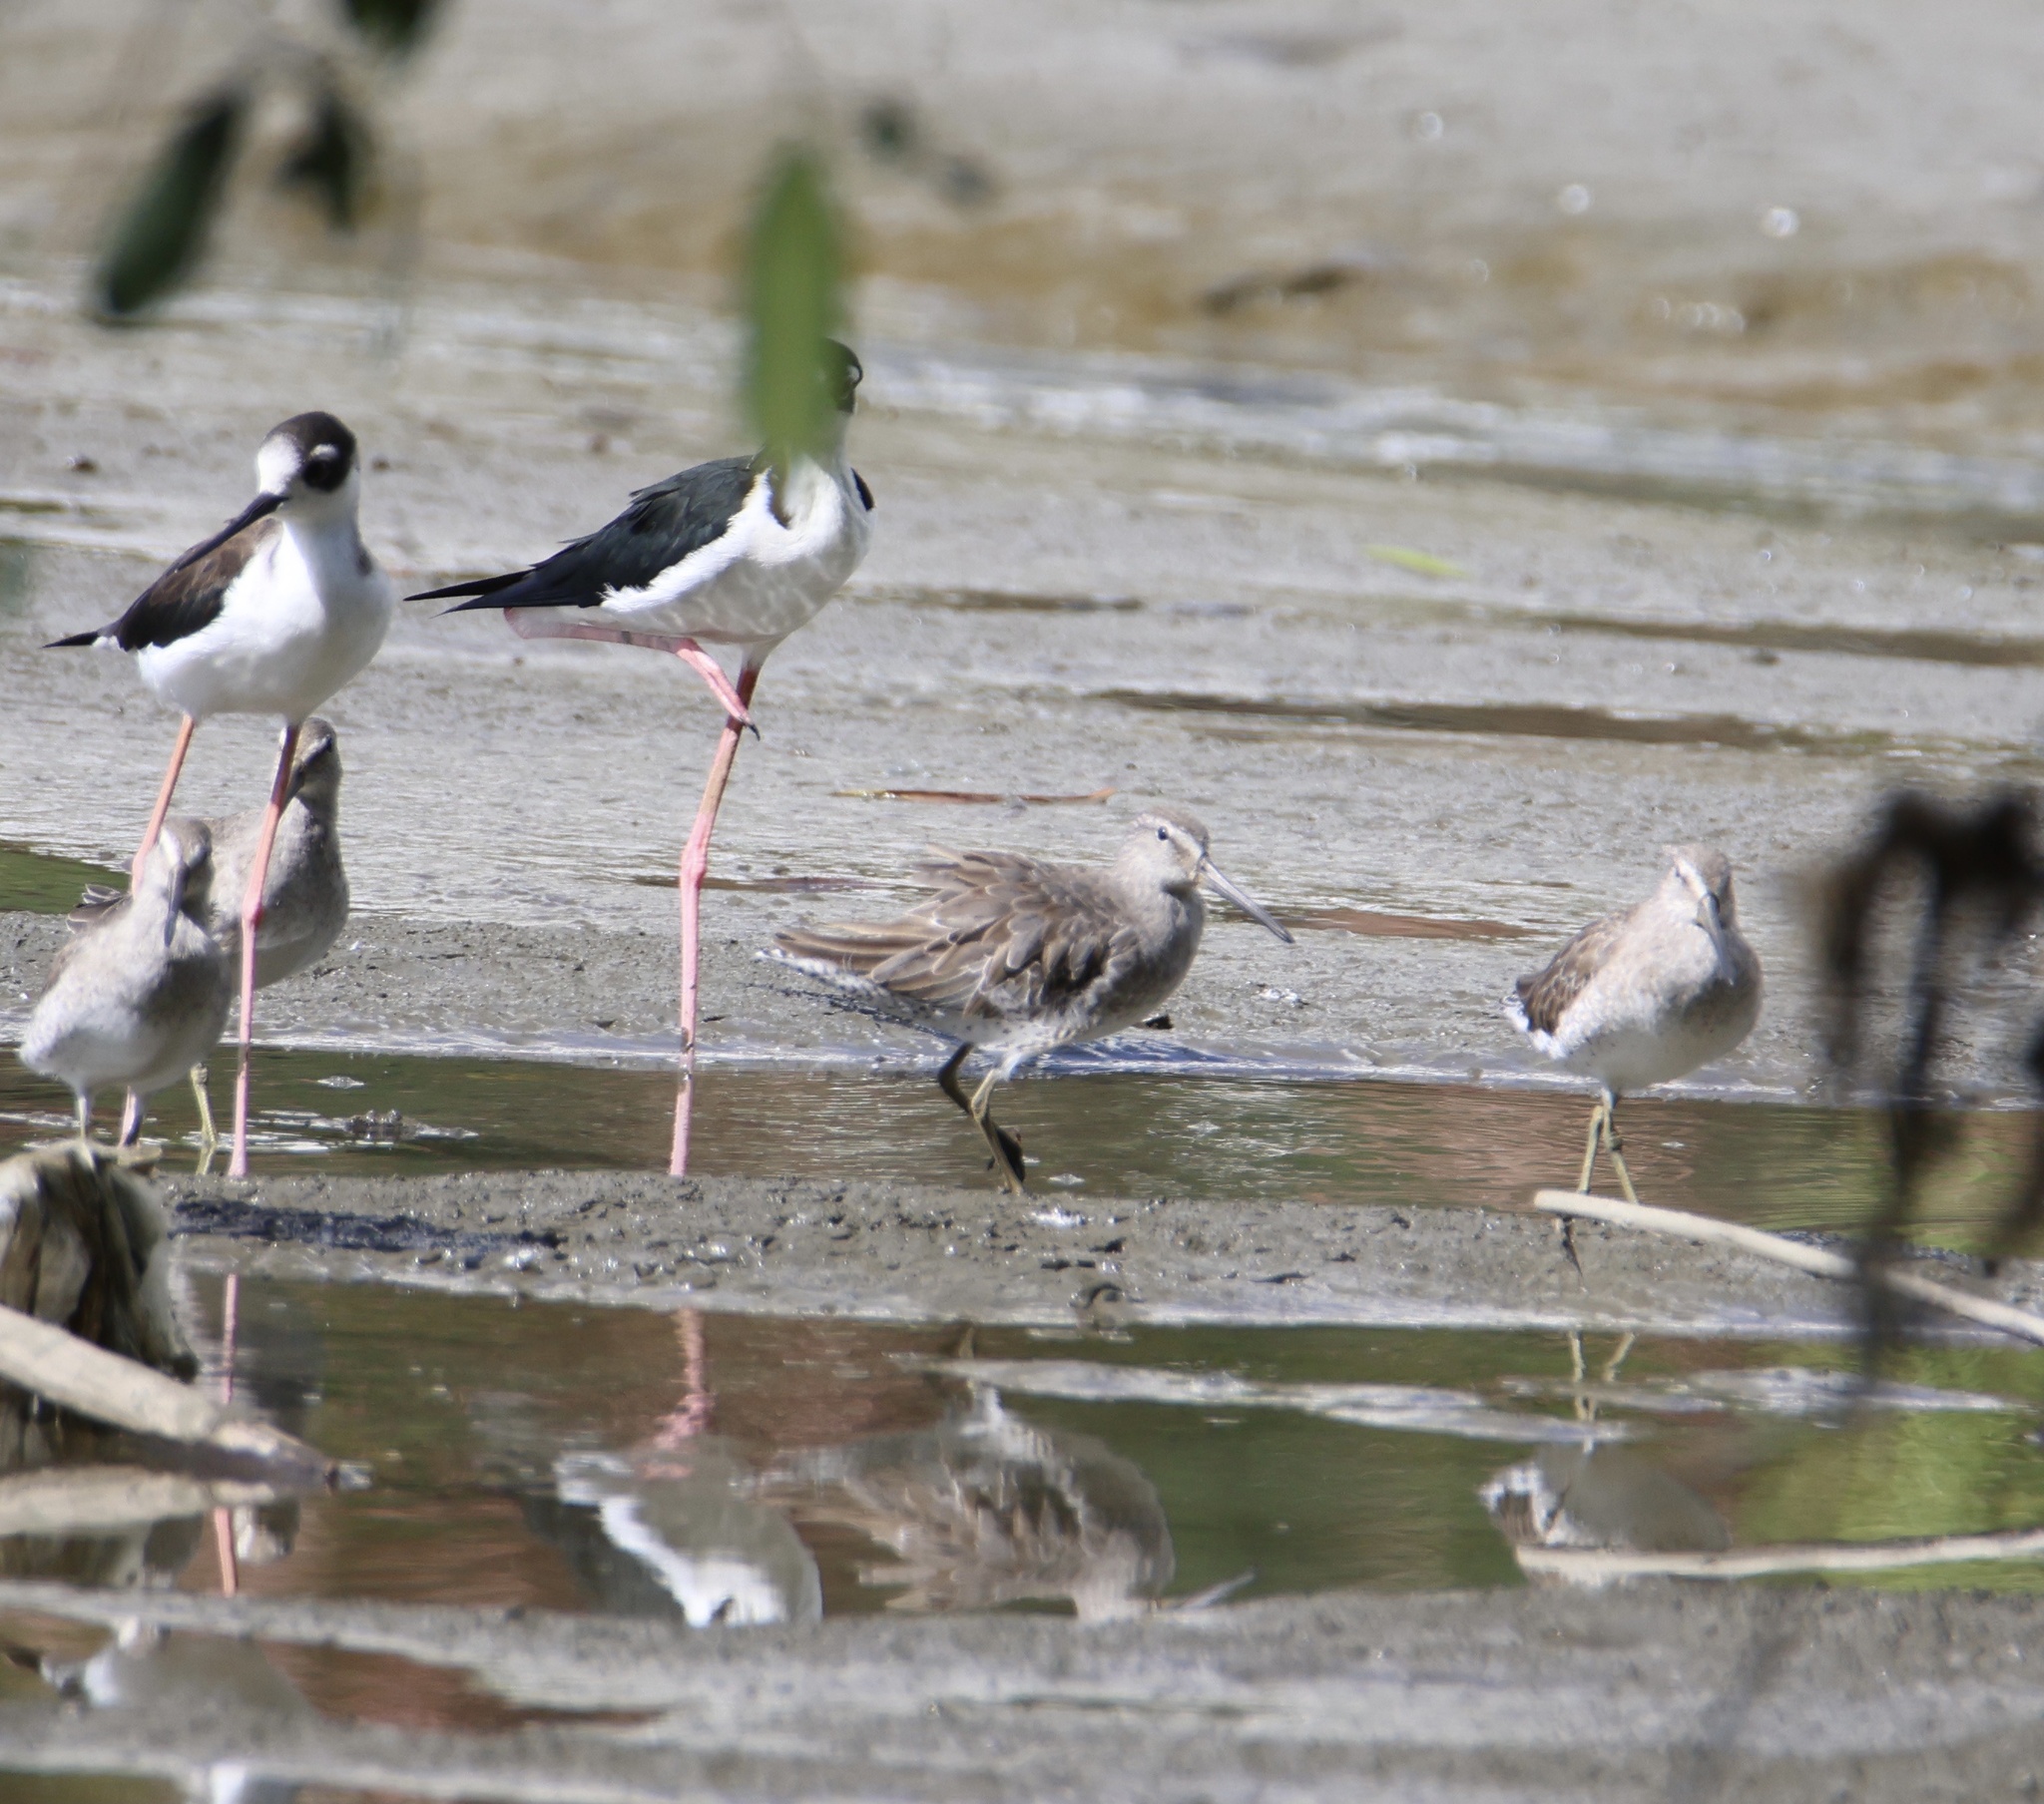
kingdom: Animalia
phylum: Chordata
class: Aves
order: Charadriiformes
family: Scolopacidae
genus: Limnodromus
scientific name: Limnodromus griseus
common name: Short-billed dowitcher
